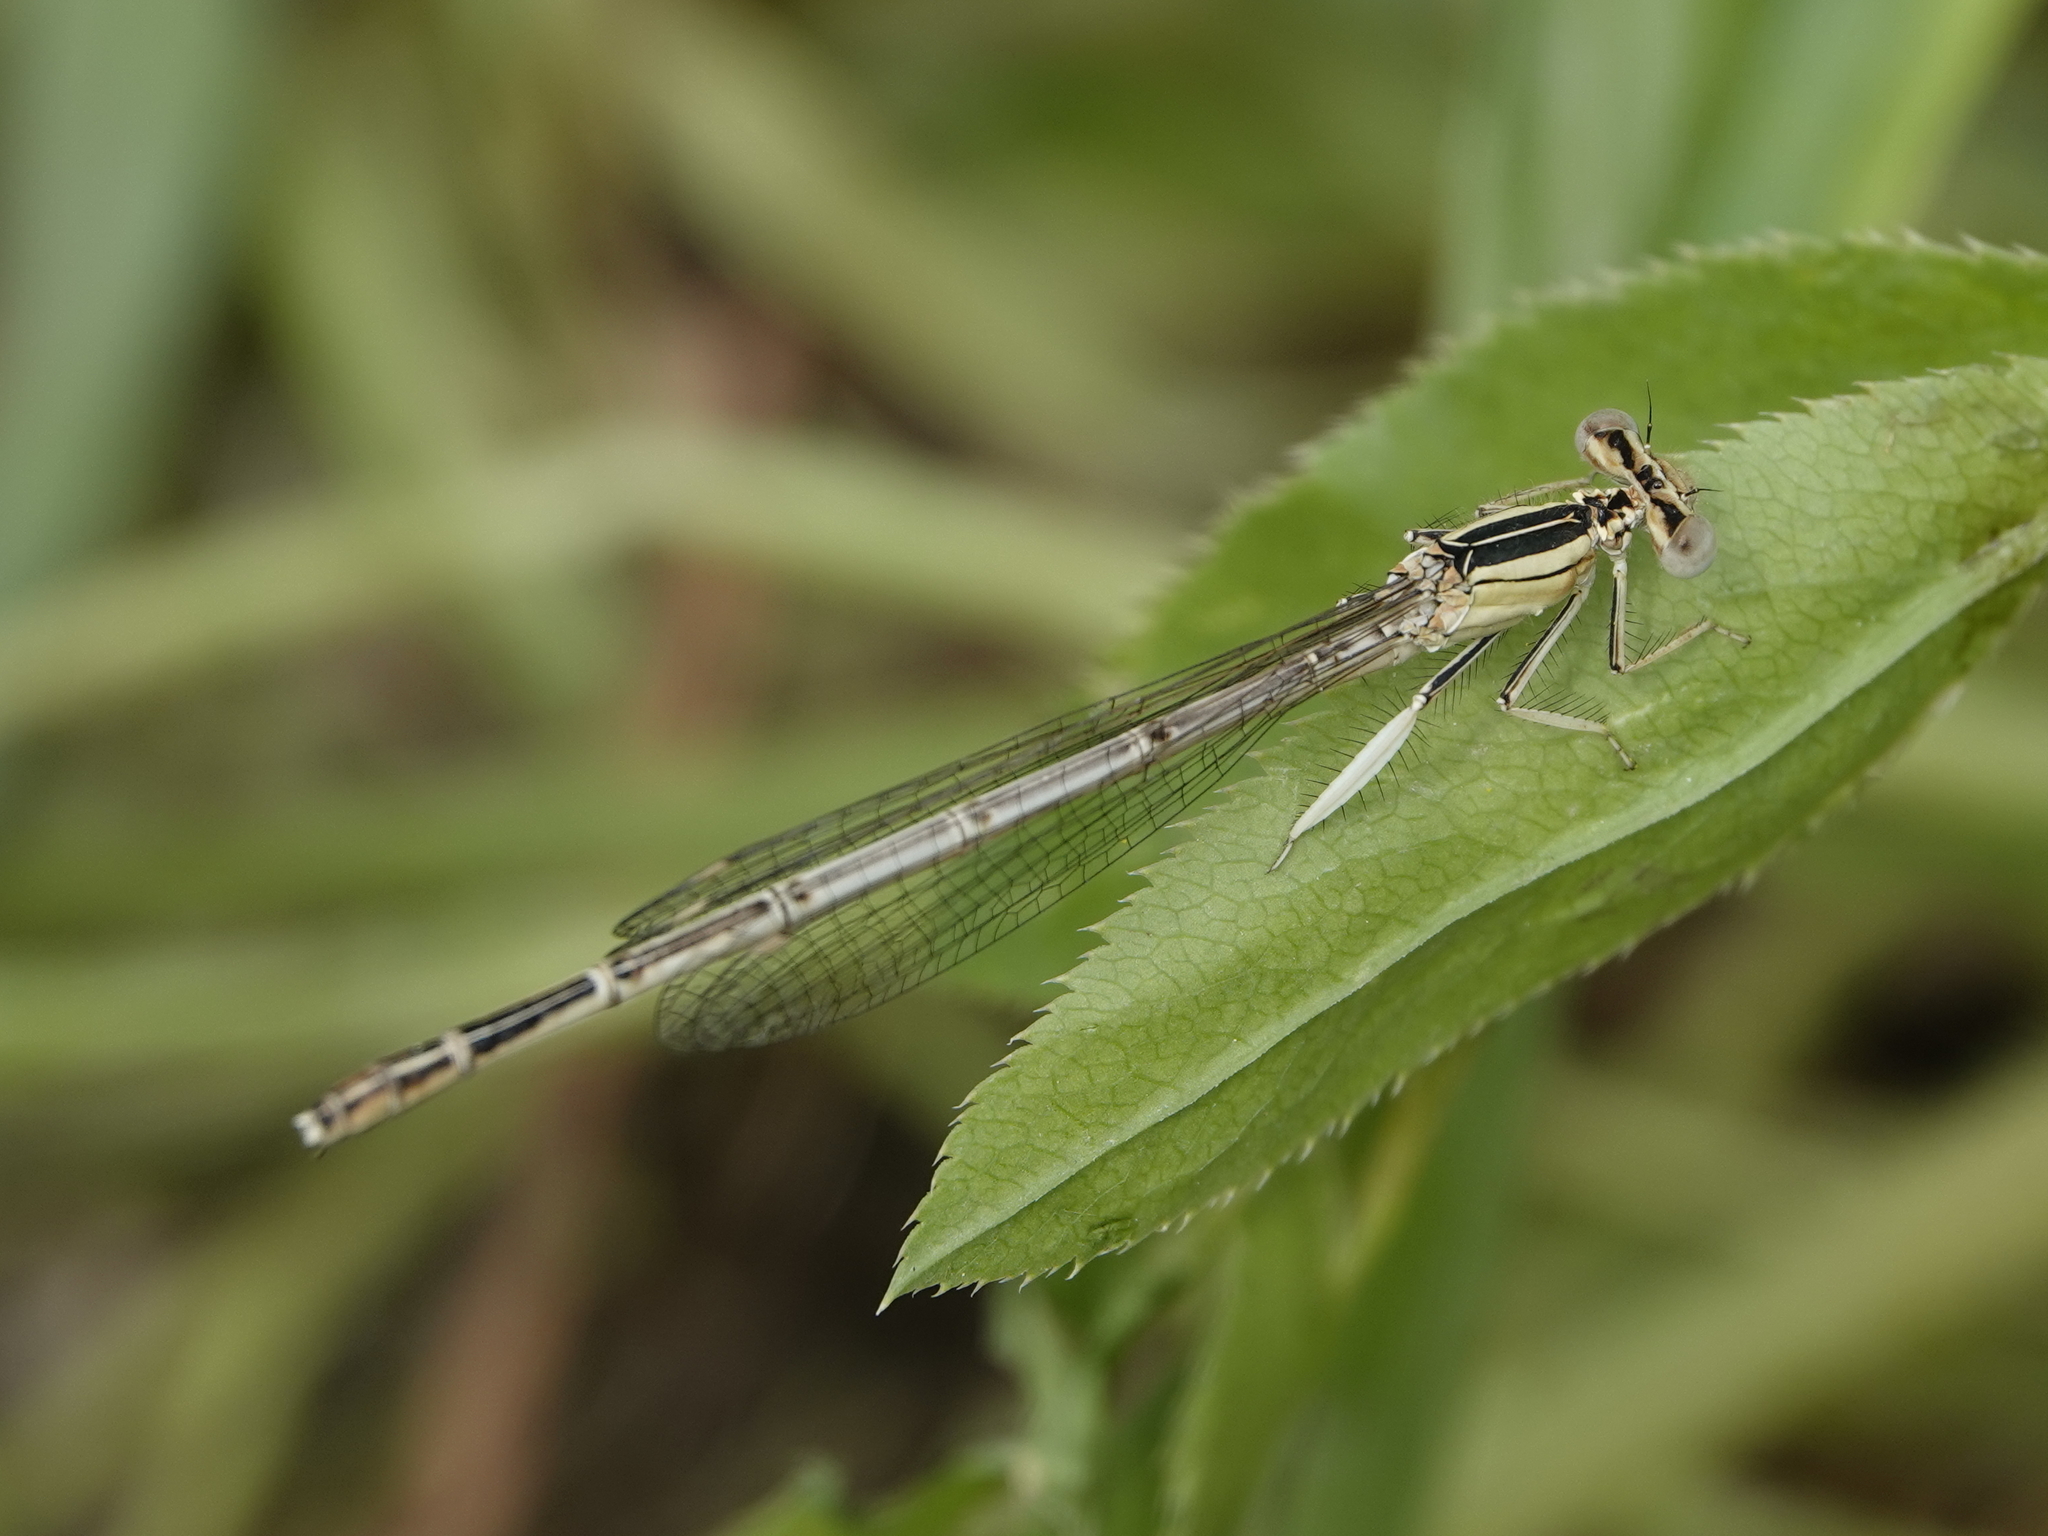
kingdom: Animalia
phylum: Arthropoda
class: Insecta
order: Odonata
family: Platycnemididae
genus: Platycnemis
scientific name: Platycnemis dealbata
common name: Ivory featherleg
